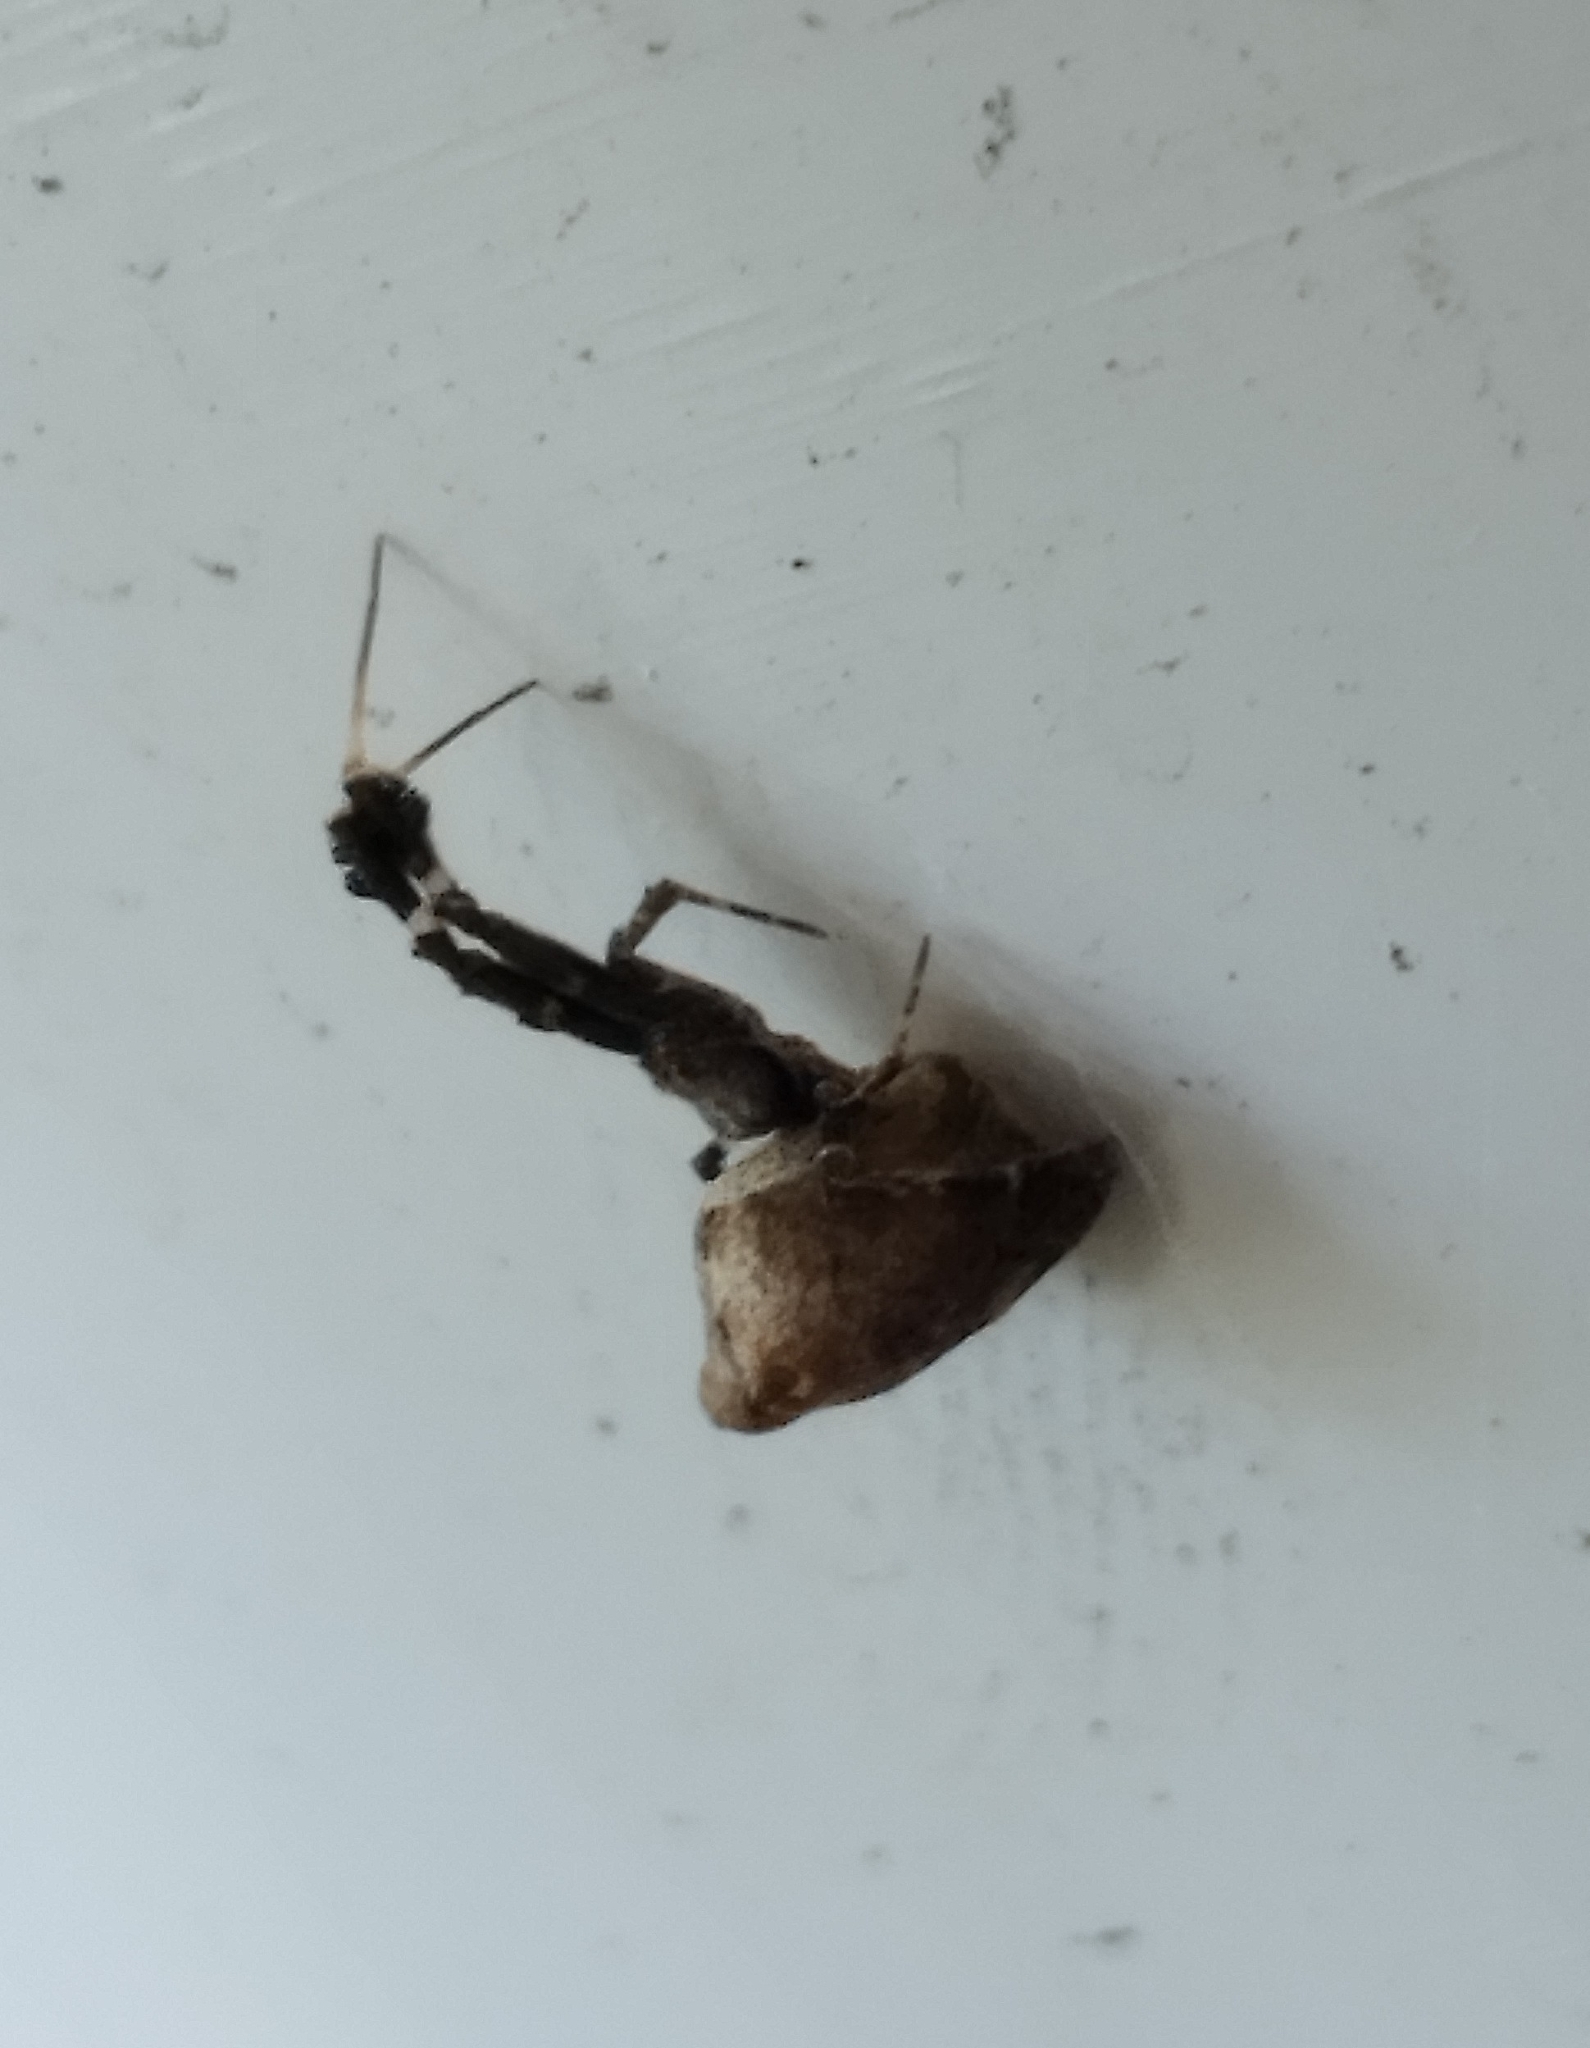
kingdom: Animalia
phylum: Arthropoda
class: Arachnida
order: Araneae
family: Uloboridae
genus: Uloborus
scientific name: Uloborus plumipes
